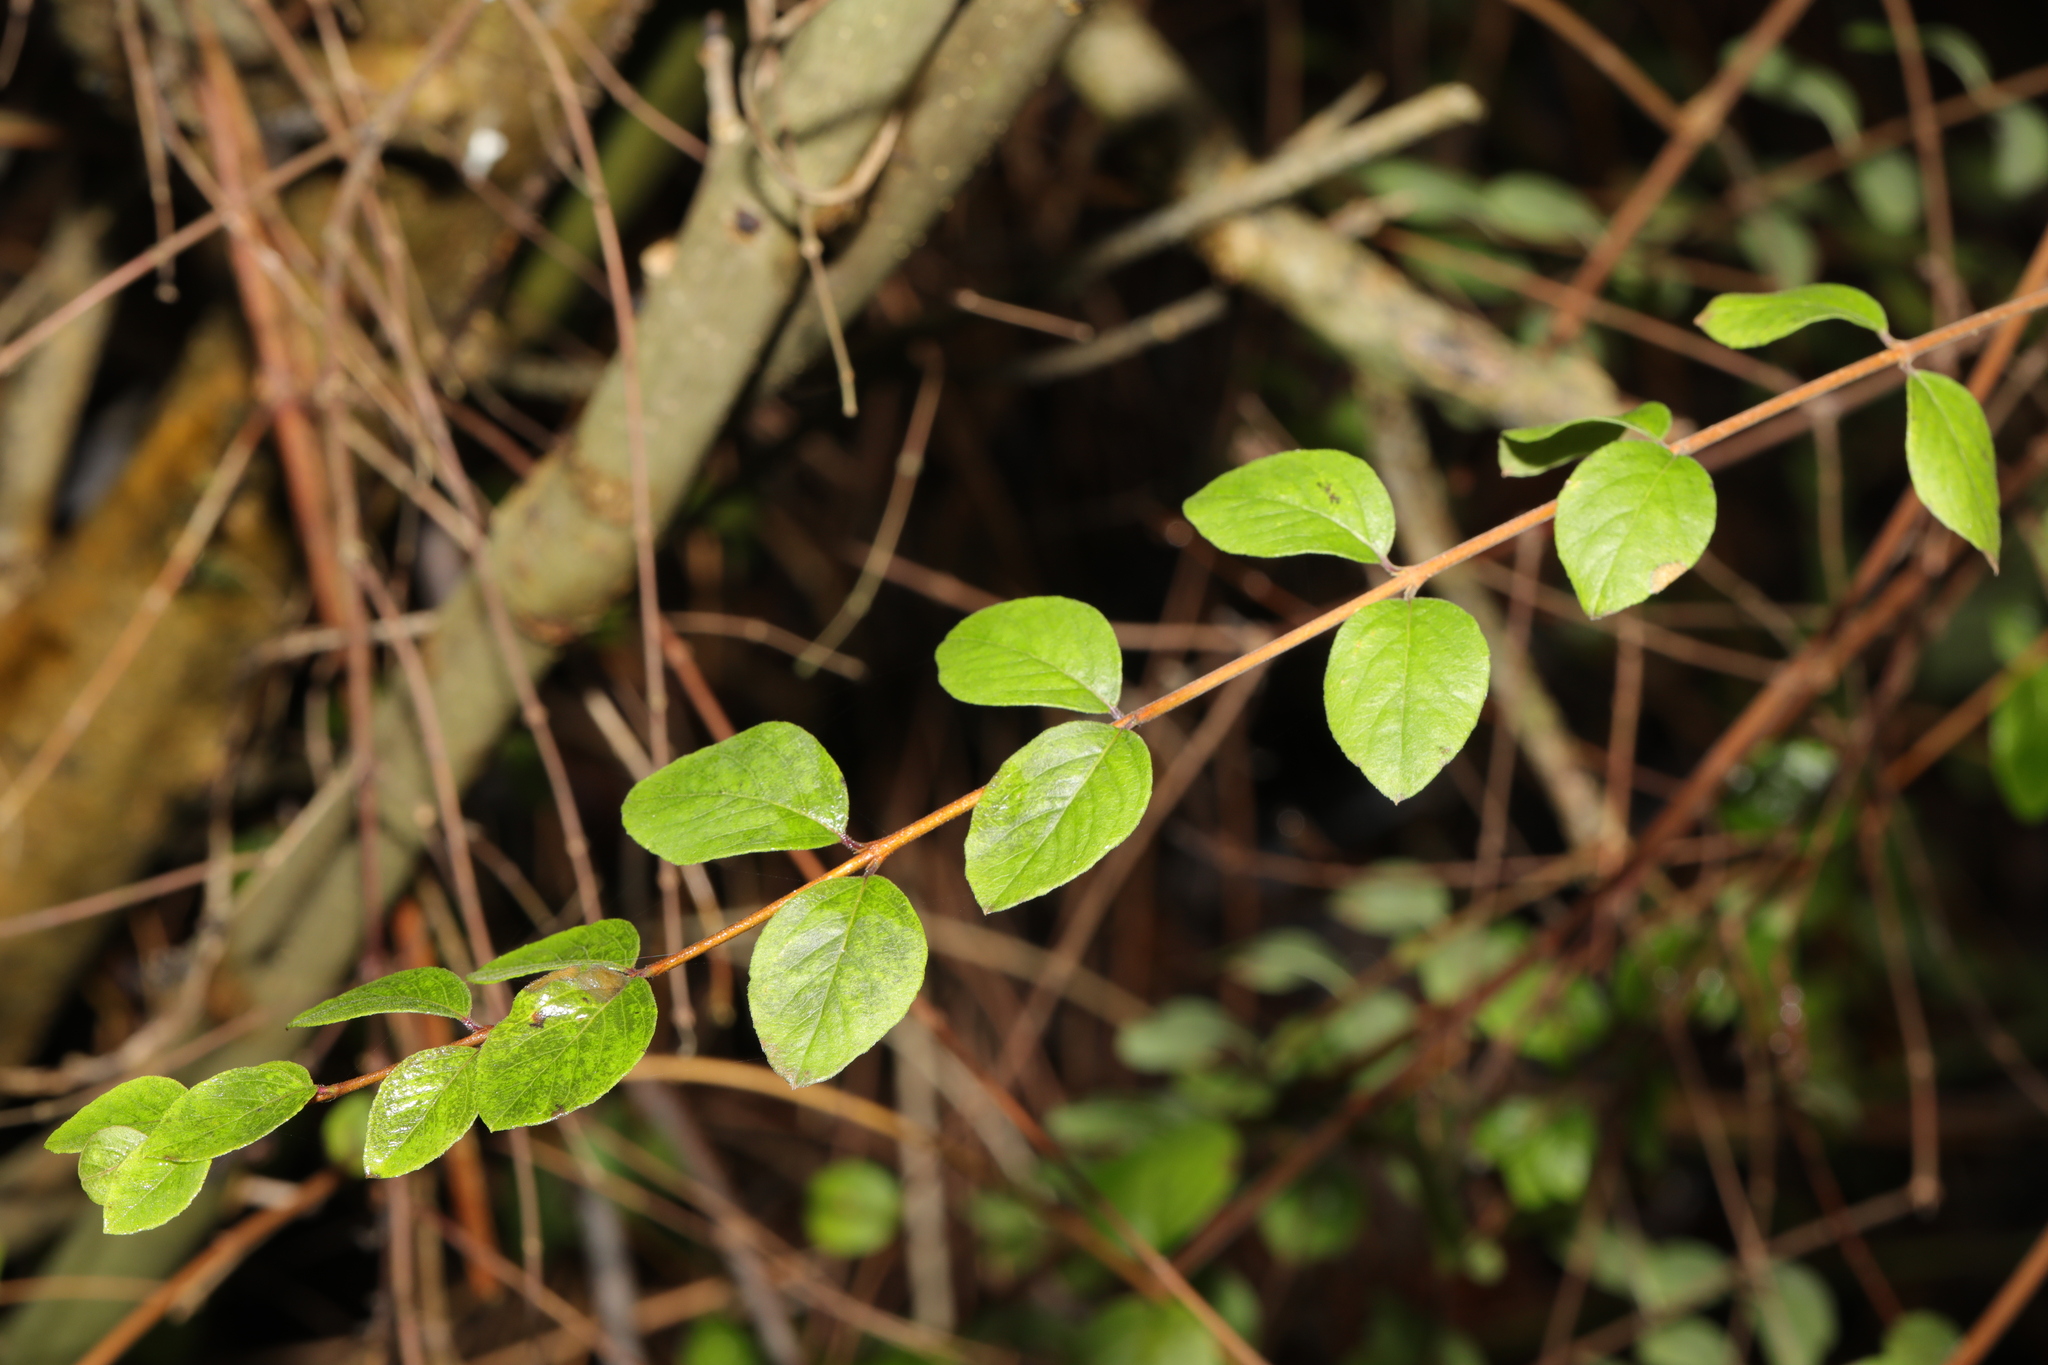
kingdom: Plantae
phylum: Tracheophyta
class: Magnoliopsida
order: Dipsacales
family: Caprifoliaceae
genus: Symphoricarpos
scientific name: Symphoricarpos chenaultii
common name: Hybrid coralberry
